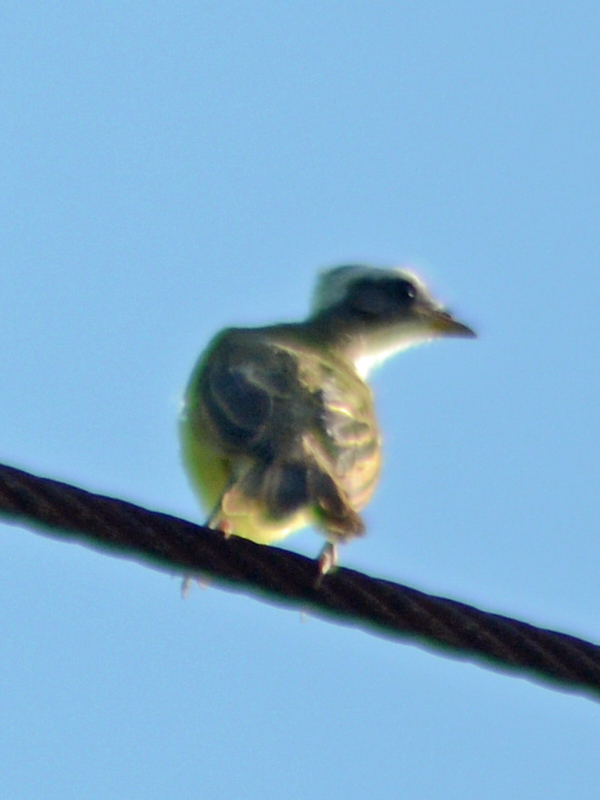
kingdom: Animalia
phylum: Chordata
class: Aves
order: Passeriformes
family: Tyrannidae
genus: Myiozetetes
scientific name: Myiozetetes similis
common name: Social flycatcher
